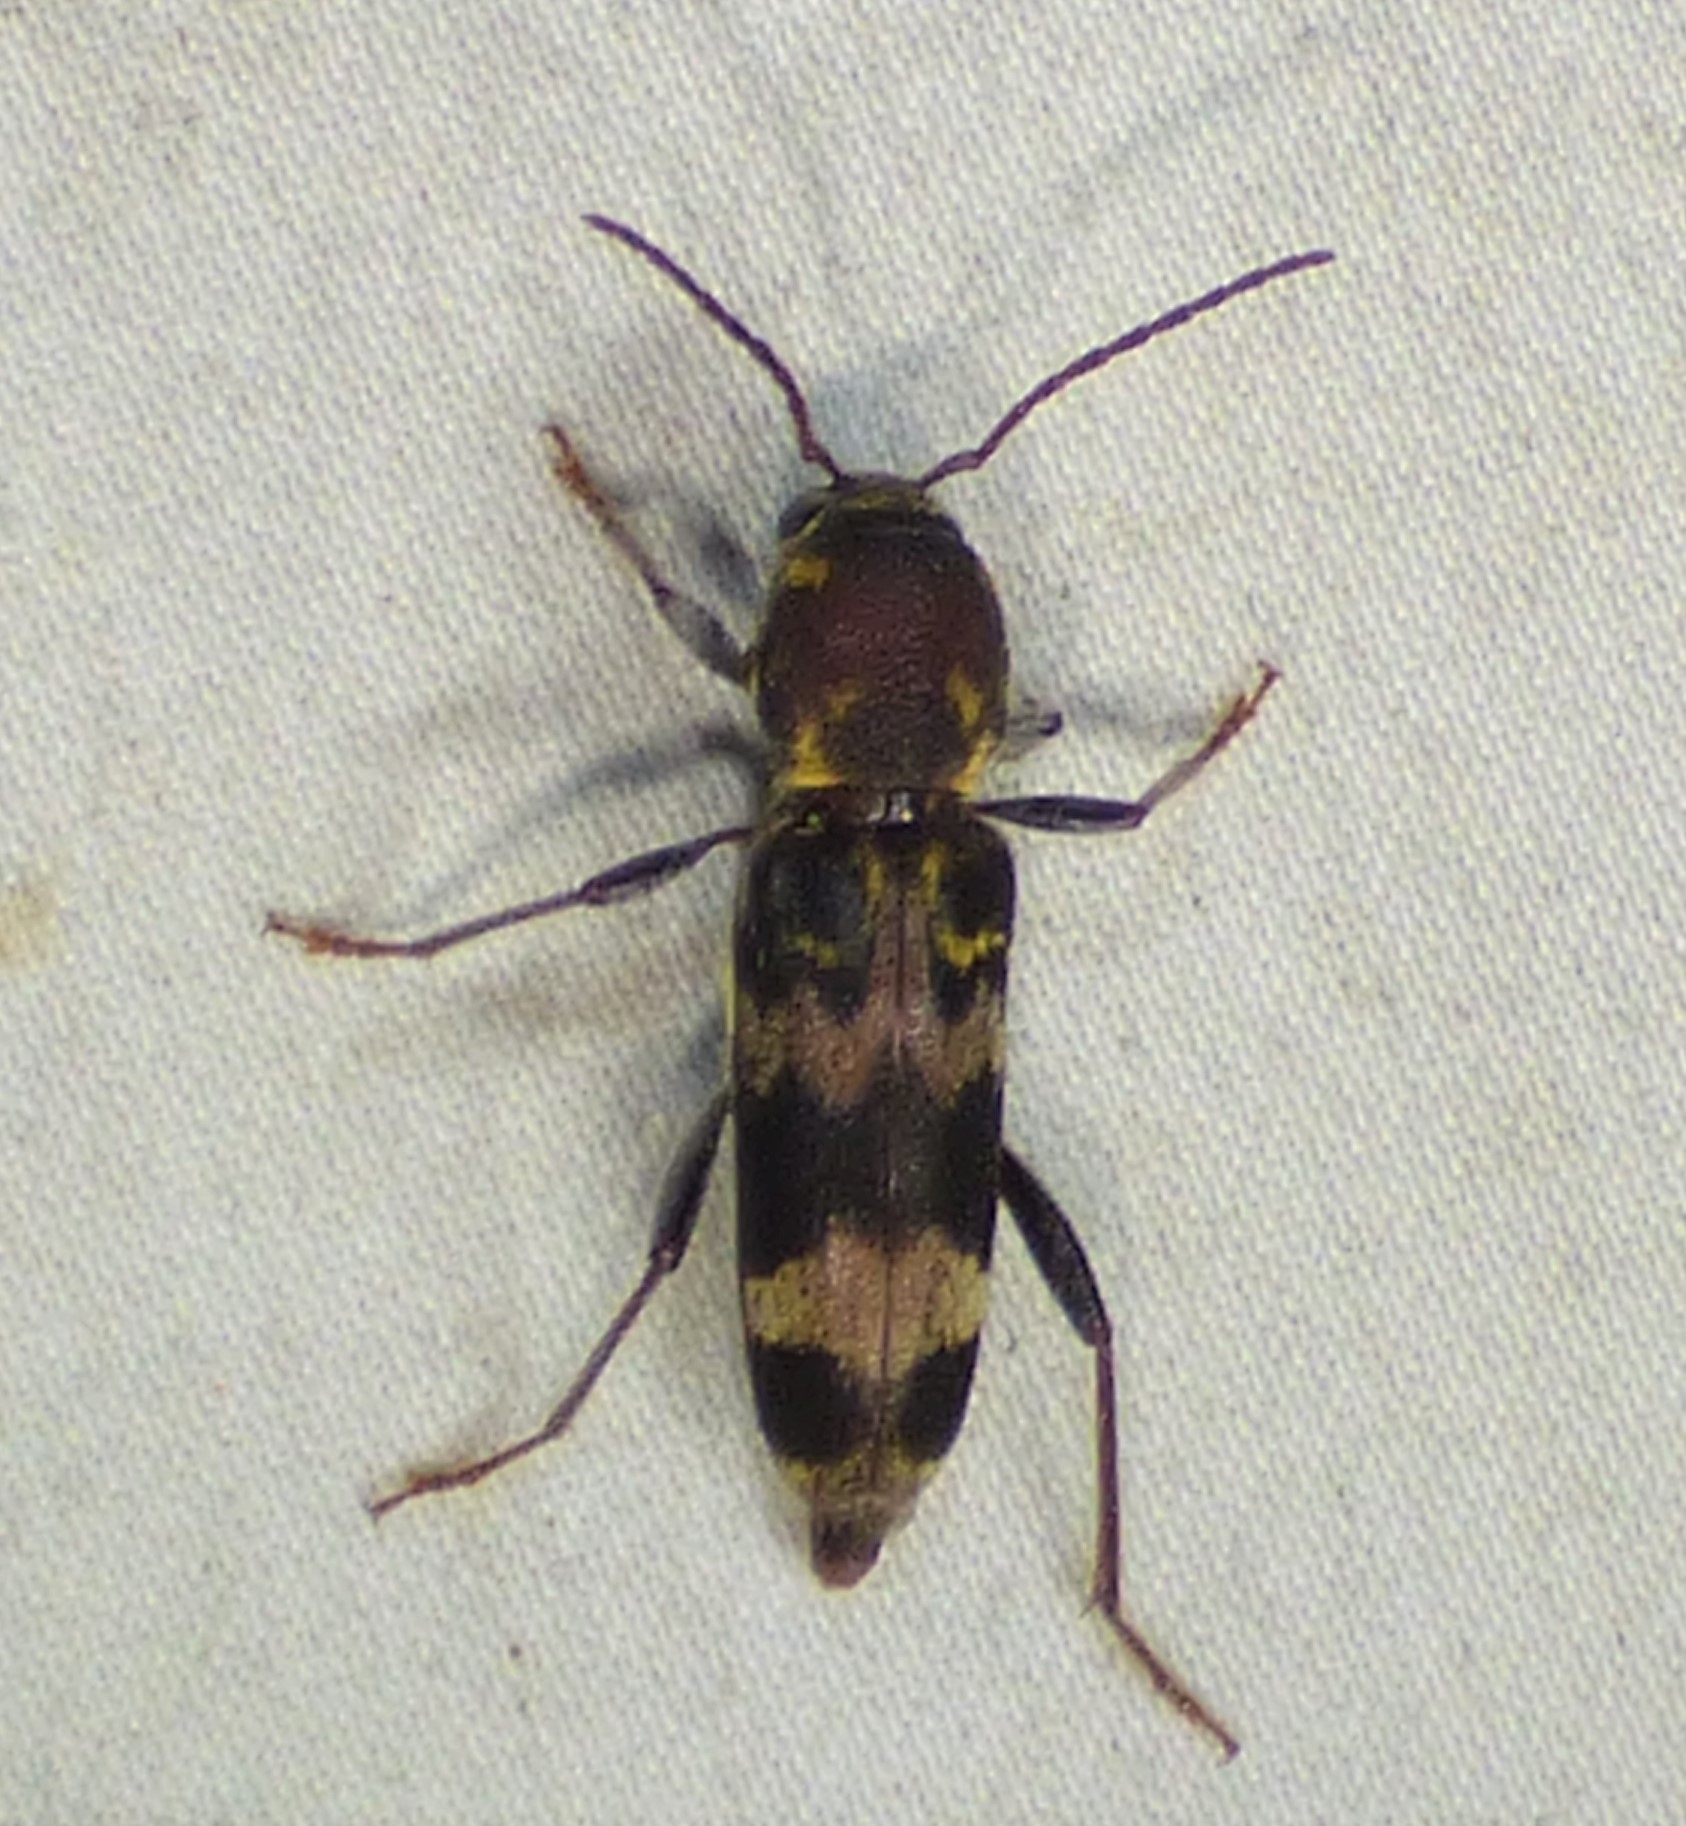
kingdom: Animalia
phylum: Arthropoda
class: Insecta
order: Coleoptera
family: Cerambycidae
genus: Xylotrechus
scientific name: Xylotrechus colonus
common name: Long-horned beetle
